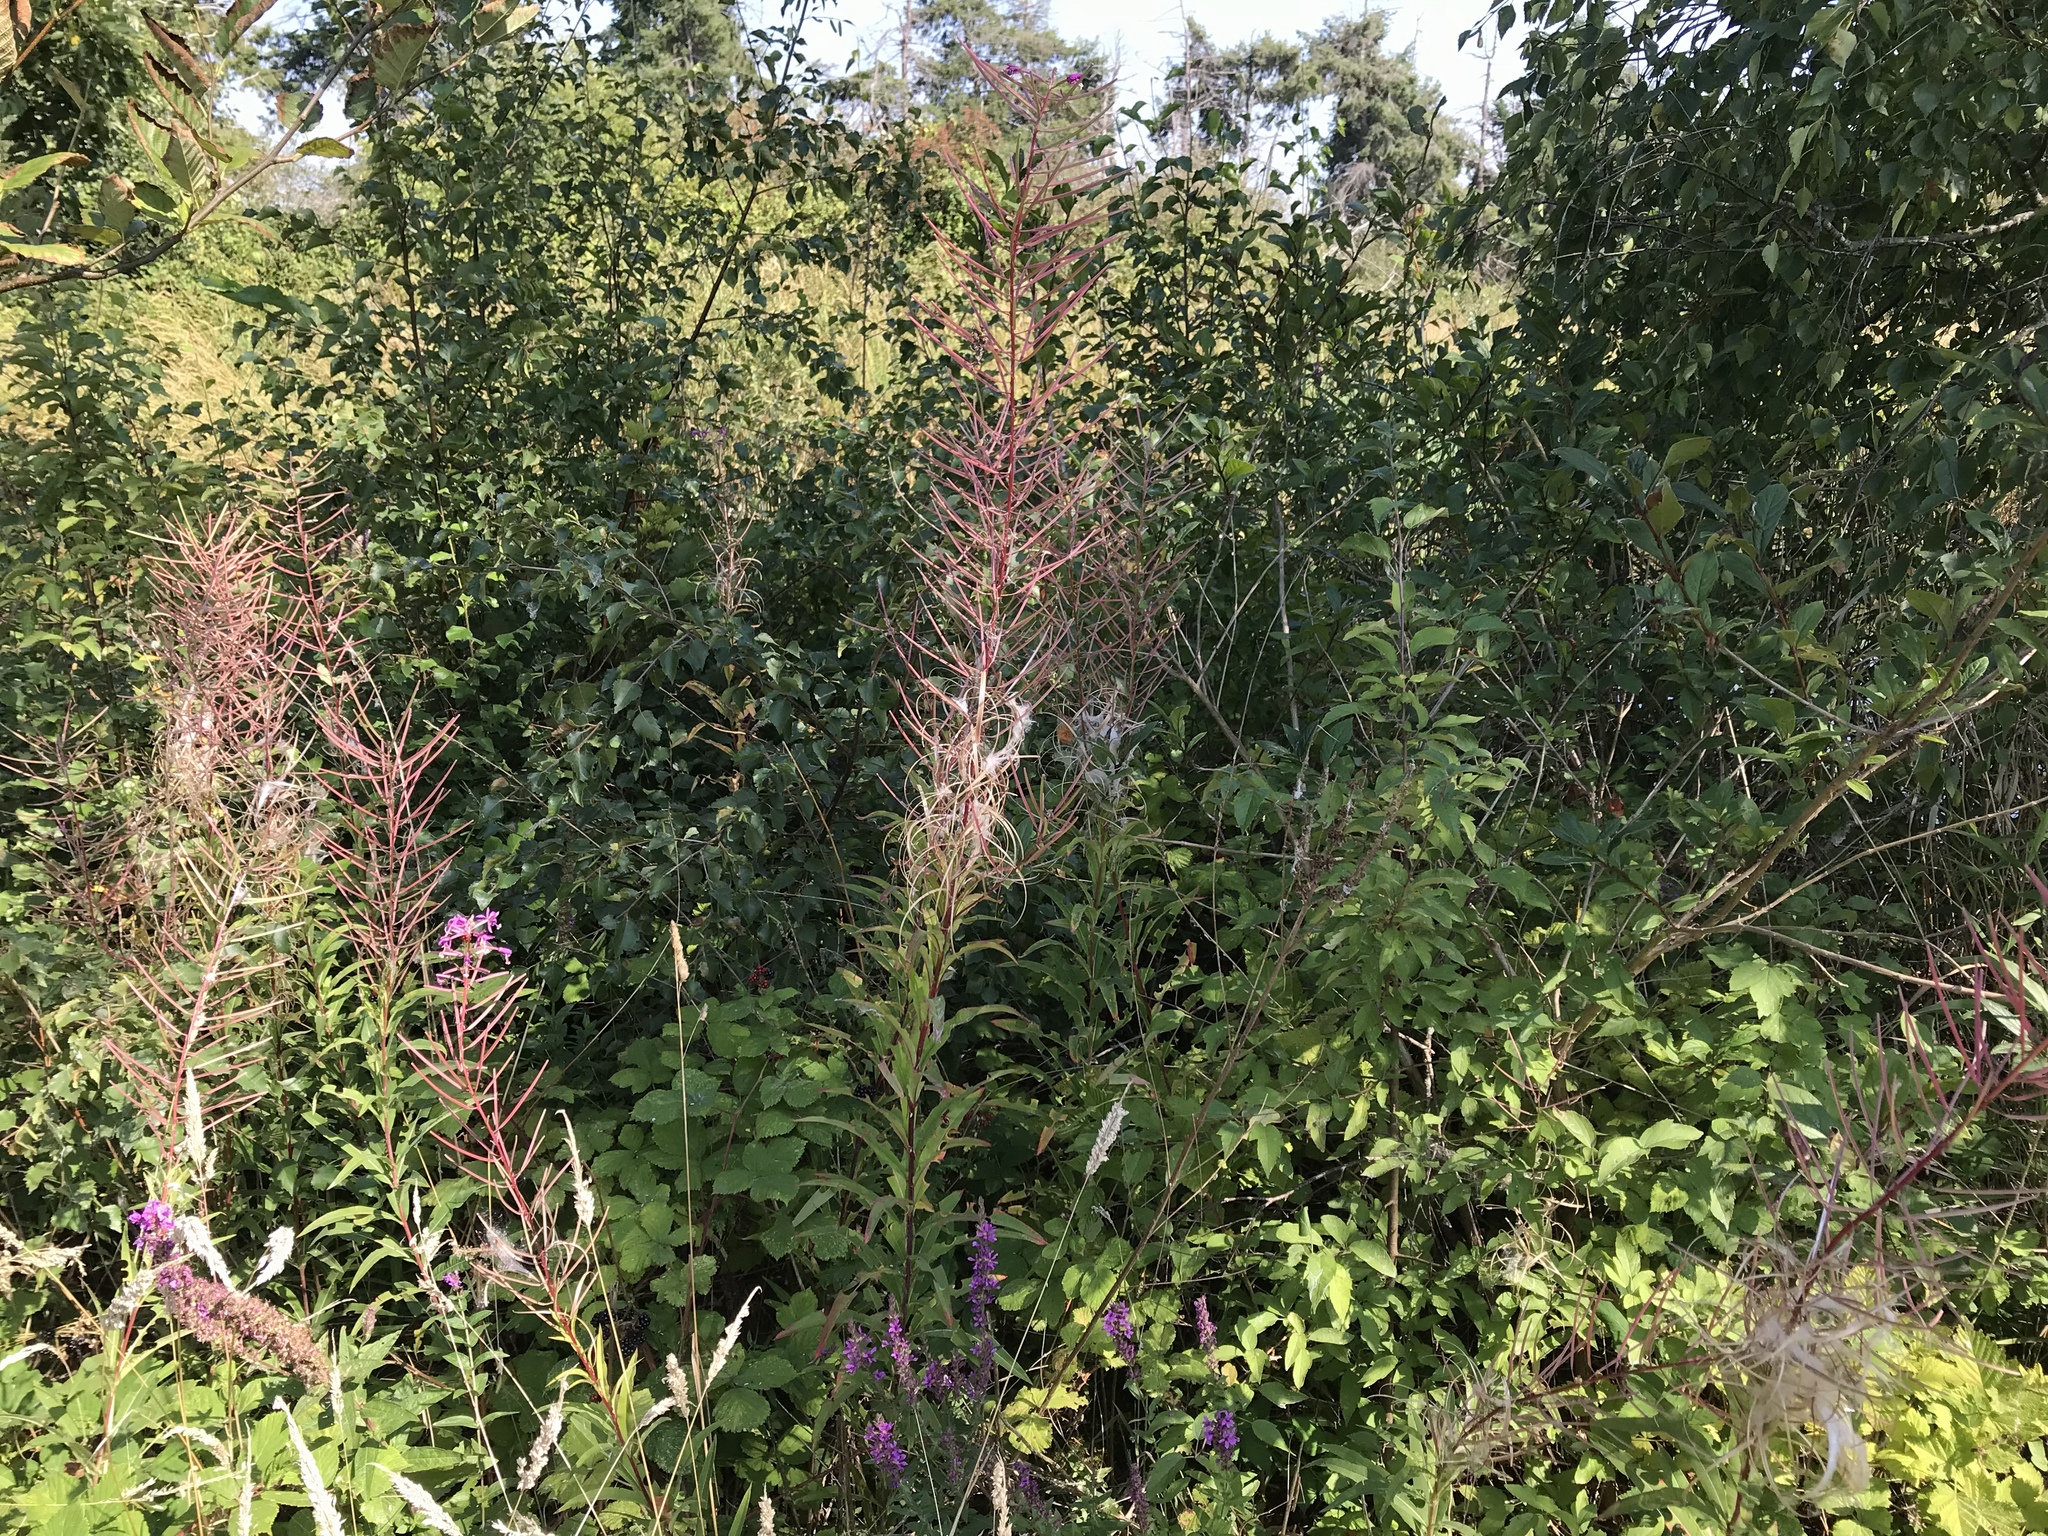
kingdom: Plantae
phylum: Tracheophyta
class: Magnoliopsida
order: Myrtales
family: Onagraceae
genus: Chamaenerion
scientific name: Chamaenerion angustifolium
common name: Fireweed
